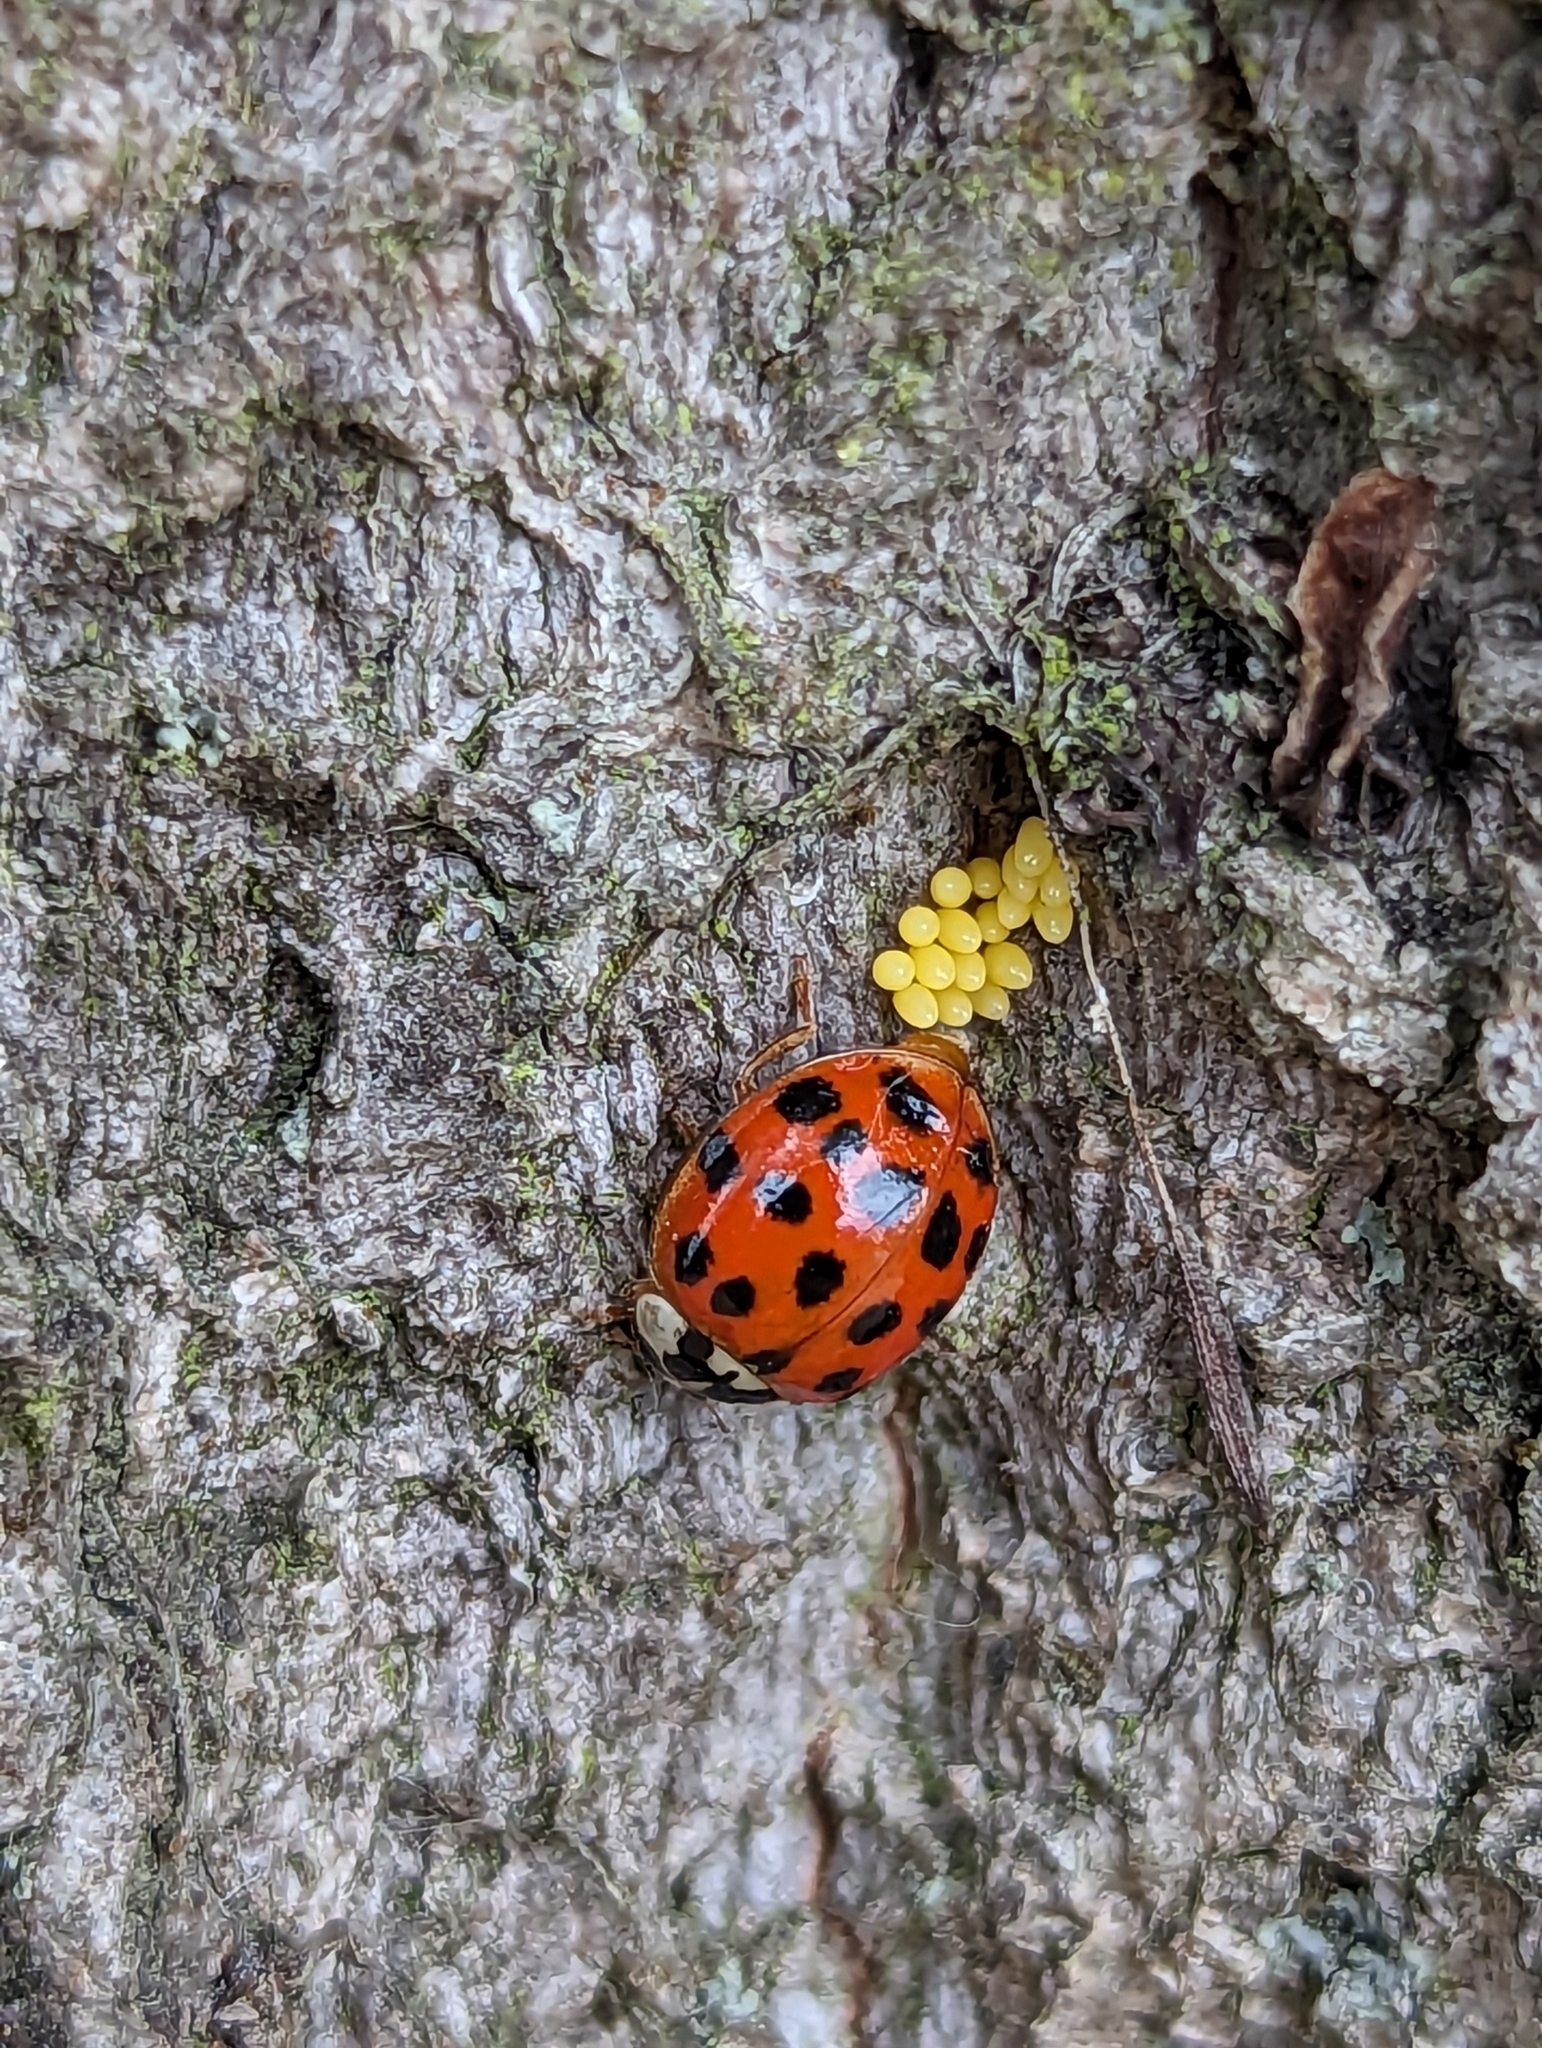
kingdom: Animalia
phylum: Arthropoda
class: Insecta
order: Coleoptera
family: Coccinellidae
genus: Harmonia
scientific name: Harmonia axyridis
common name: Harlequin ladybird
